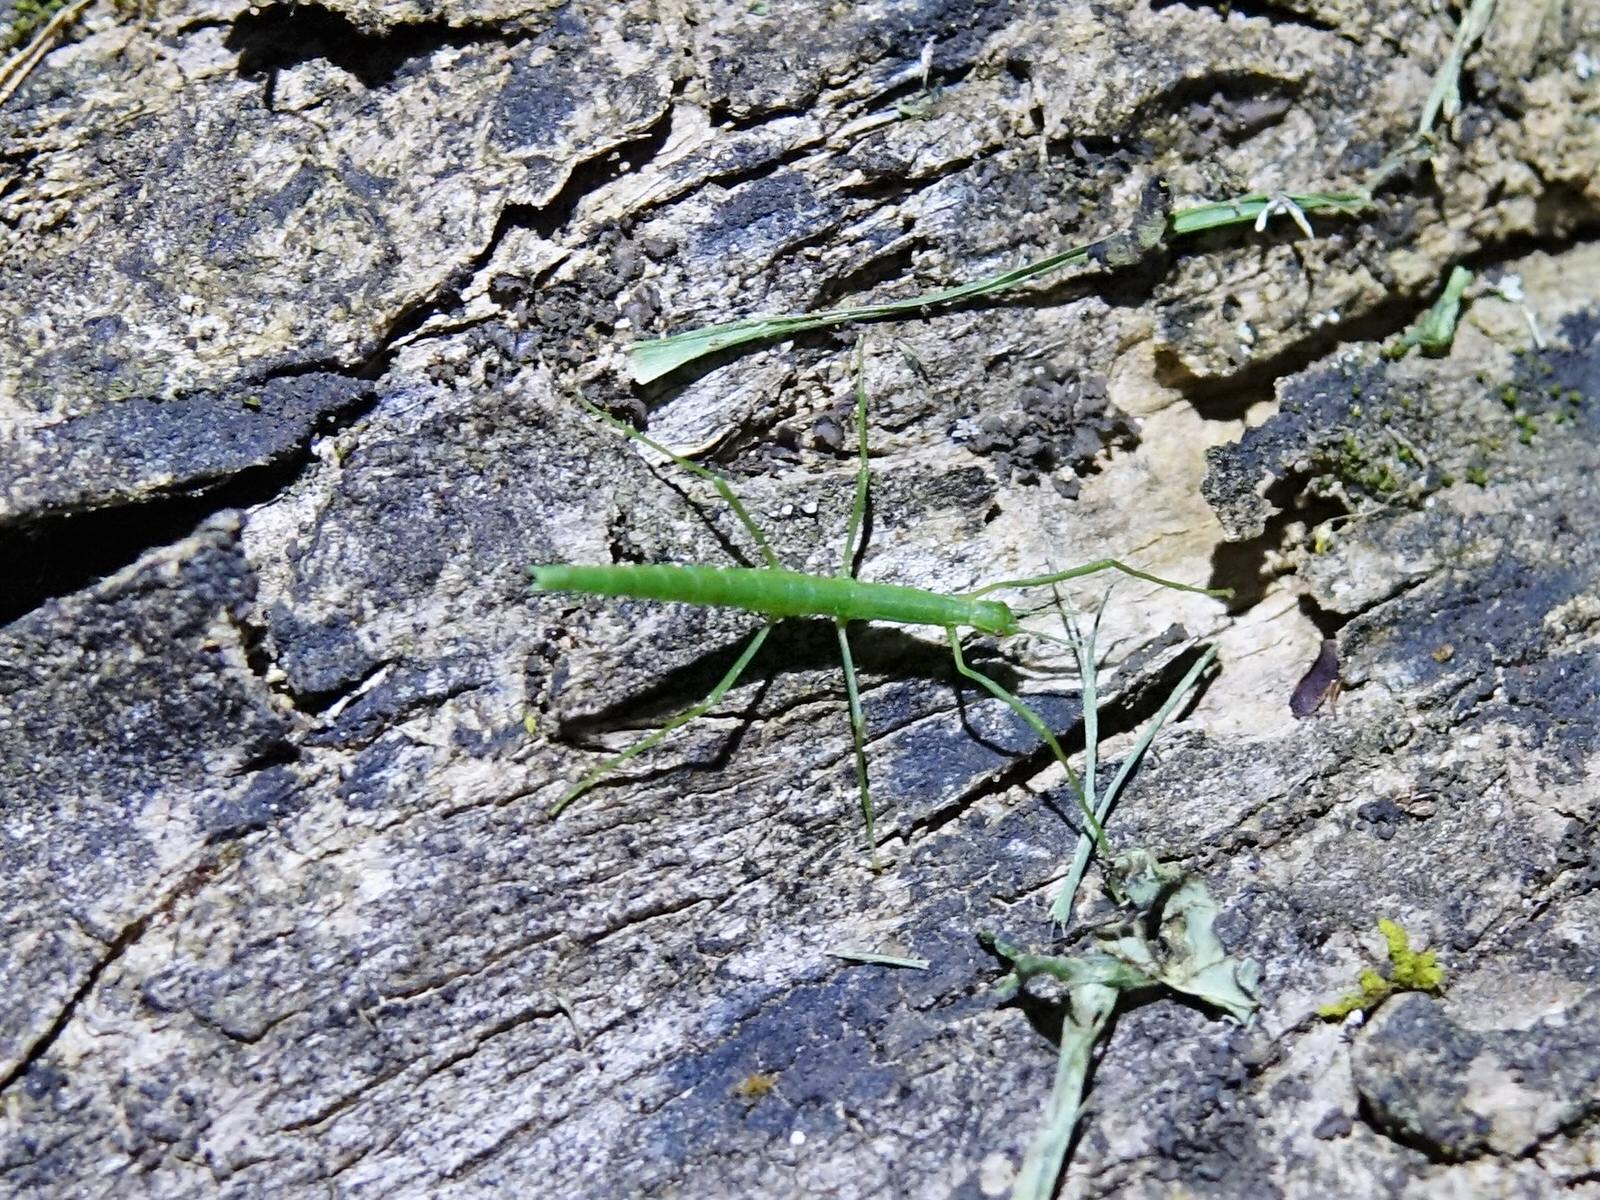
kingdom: Animalia
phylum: Arthropoda
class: Insecta
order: Phasmida
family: Phasmatidae
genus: Spinotectarchus
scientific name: Spinotectarchus acornutus
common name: The spiny ridge-backed stick insect
